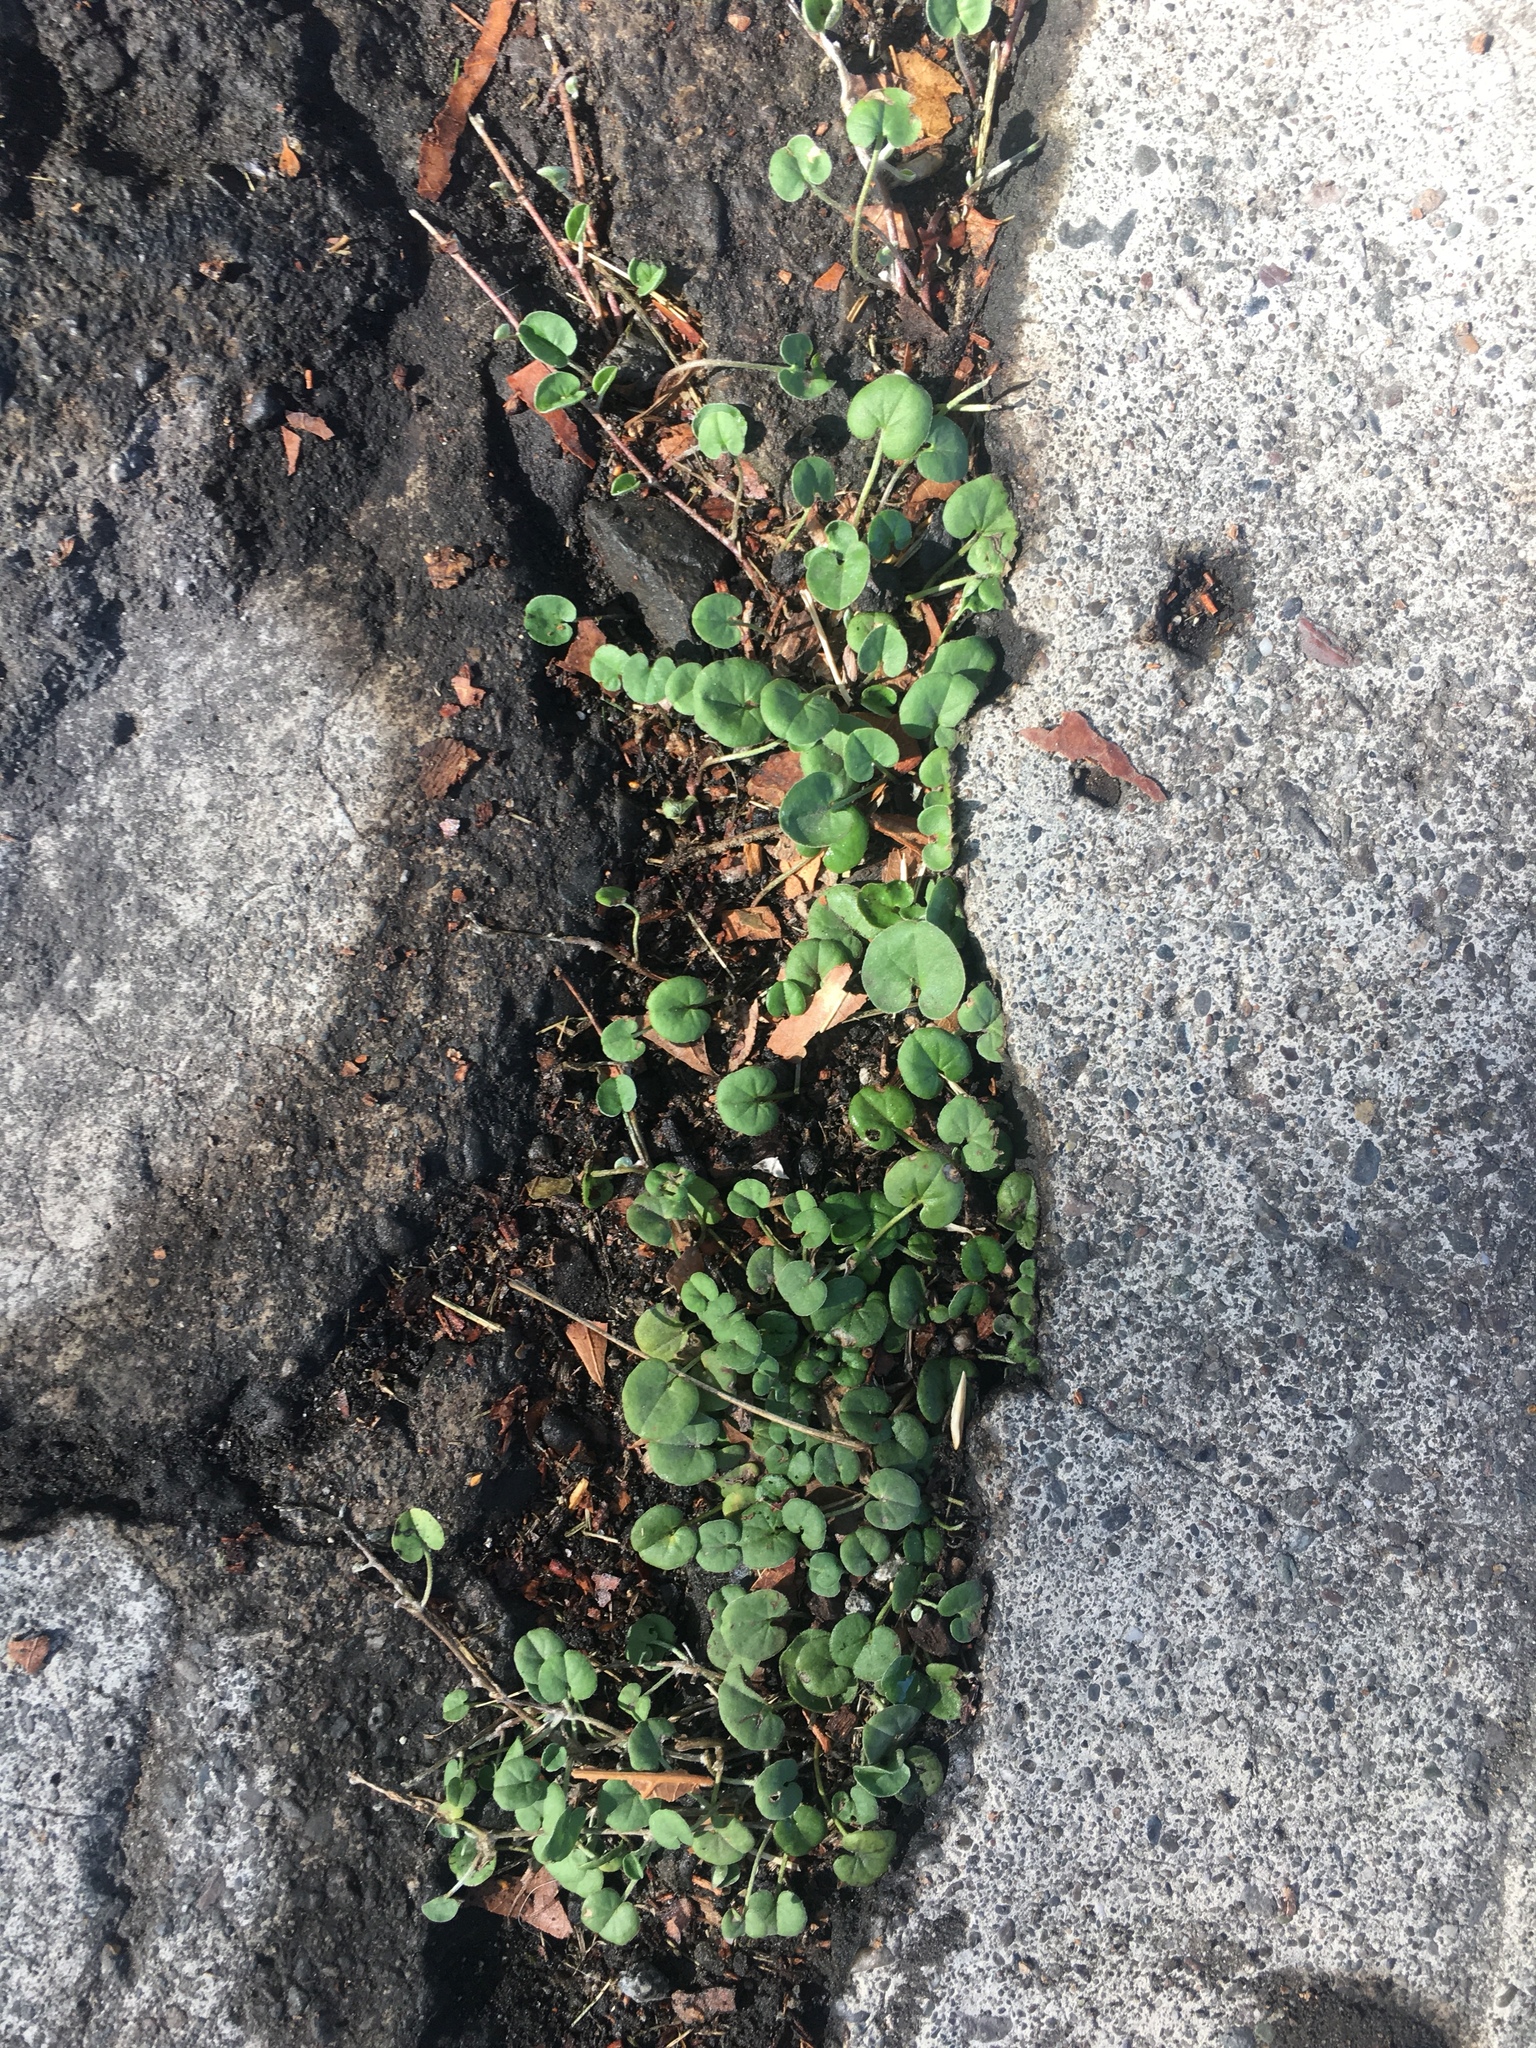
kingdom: Plantae
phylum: Tracheophyta
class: Magnoliopsida
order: Solanales
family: Convolvulaceae
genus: Dichondra
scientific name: Dichondra micrantha
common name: Kidneyweed
